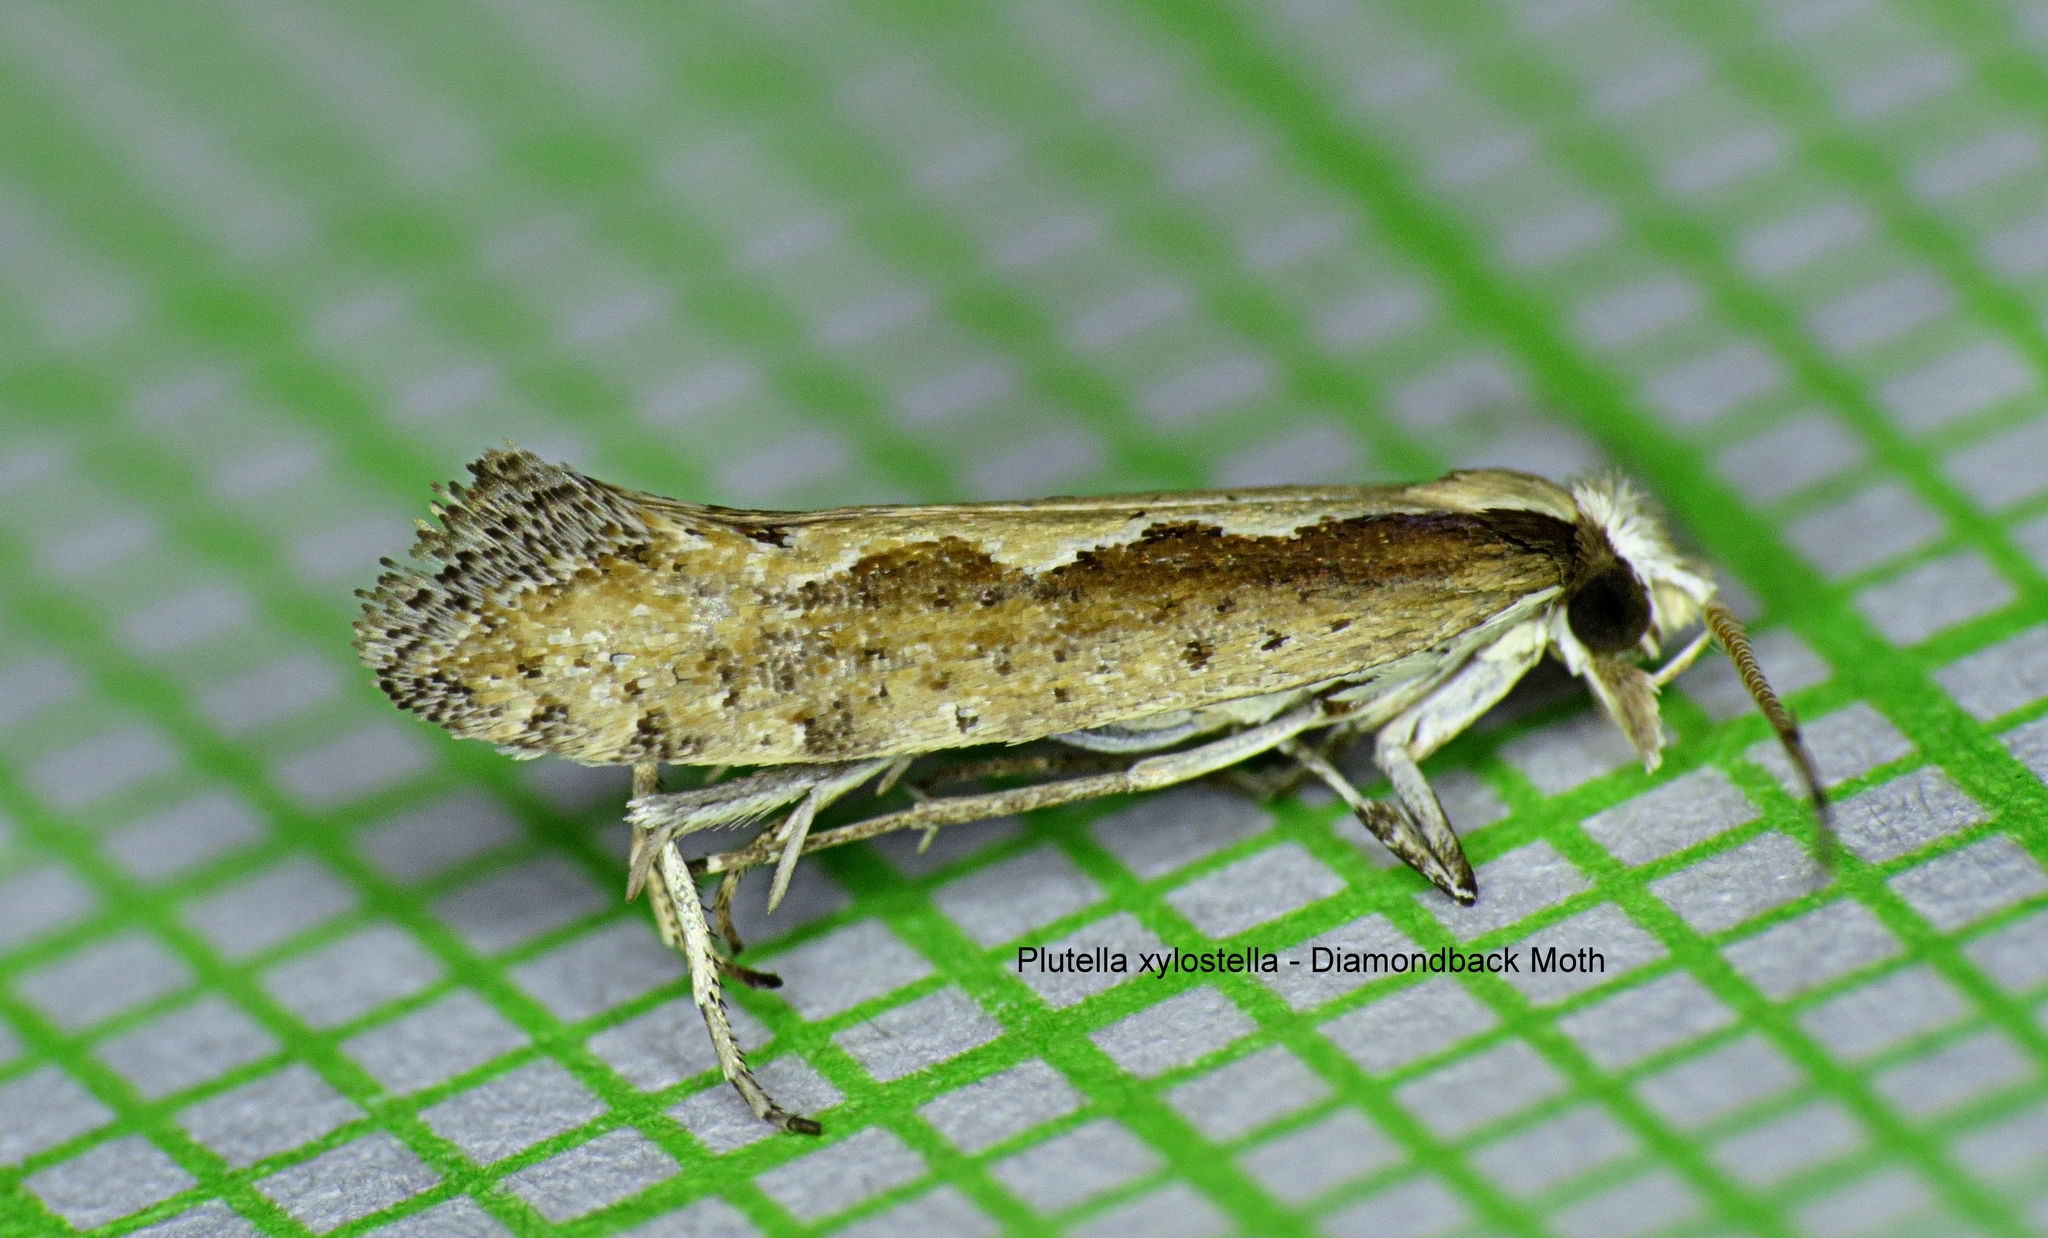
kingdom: Animalia
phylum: Arthropoda
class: Insecta
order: Lepidoptera
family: Plutellidae
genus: Plutella
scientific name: Plutella xylostella
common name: Diamond-back moth
